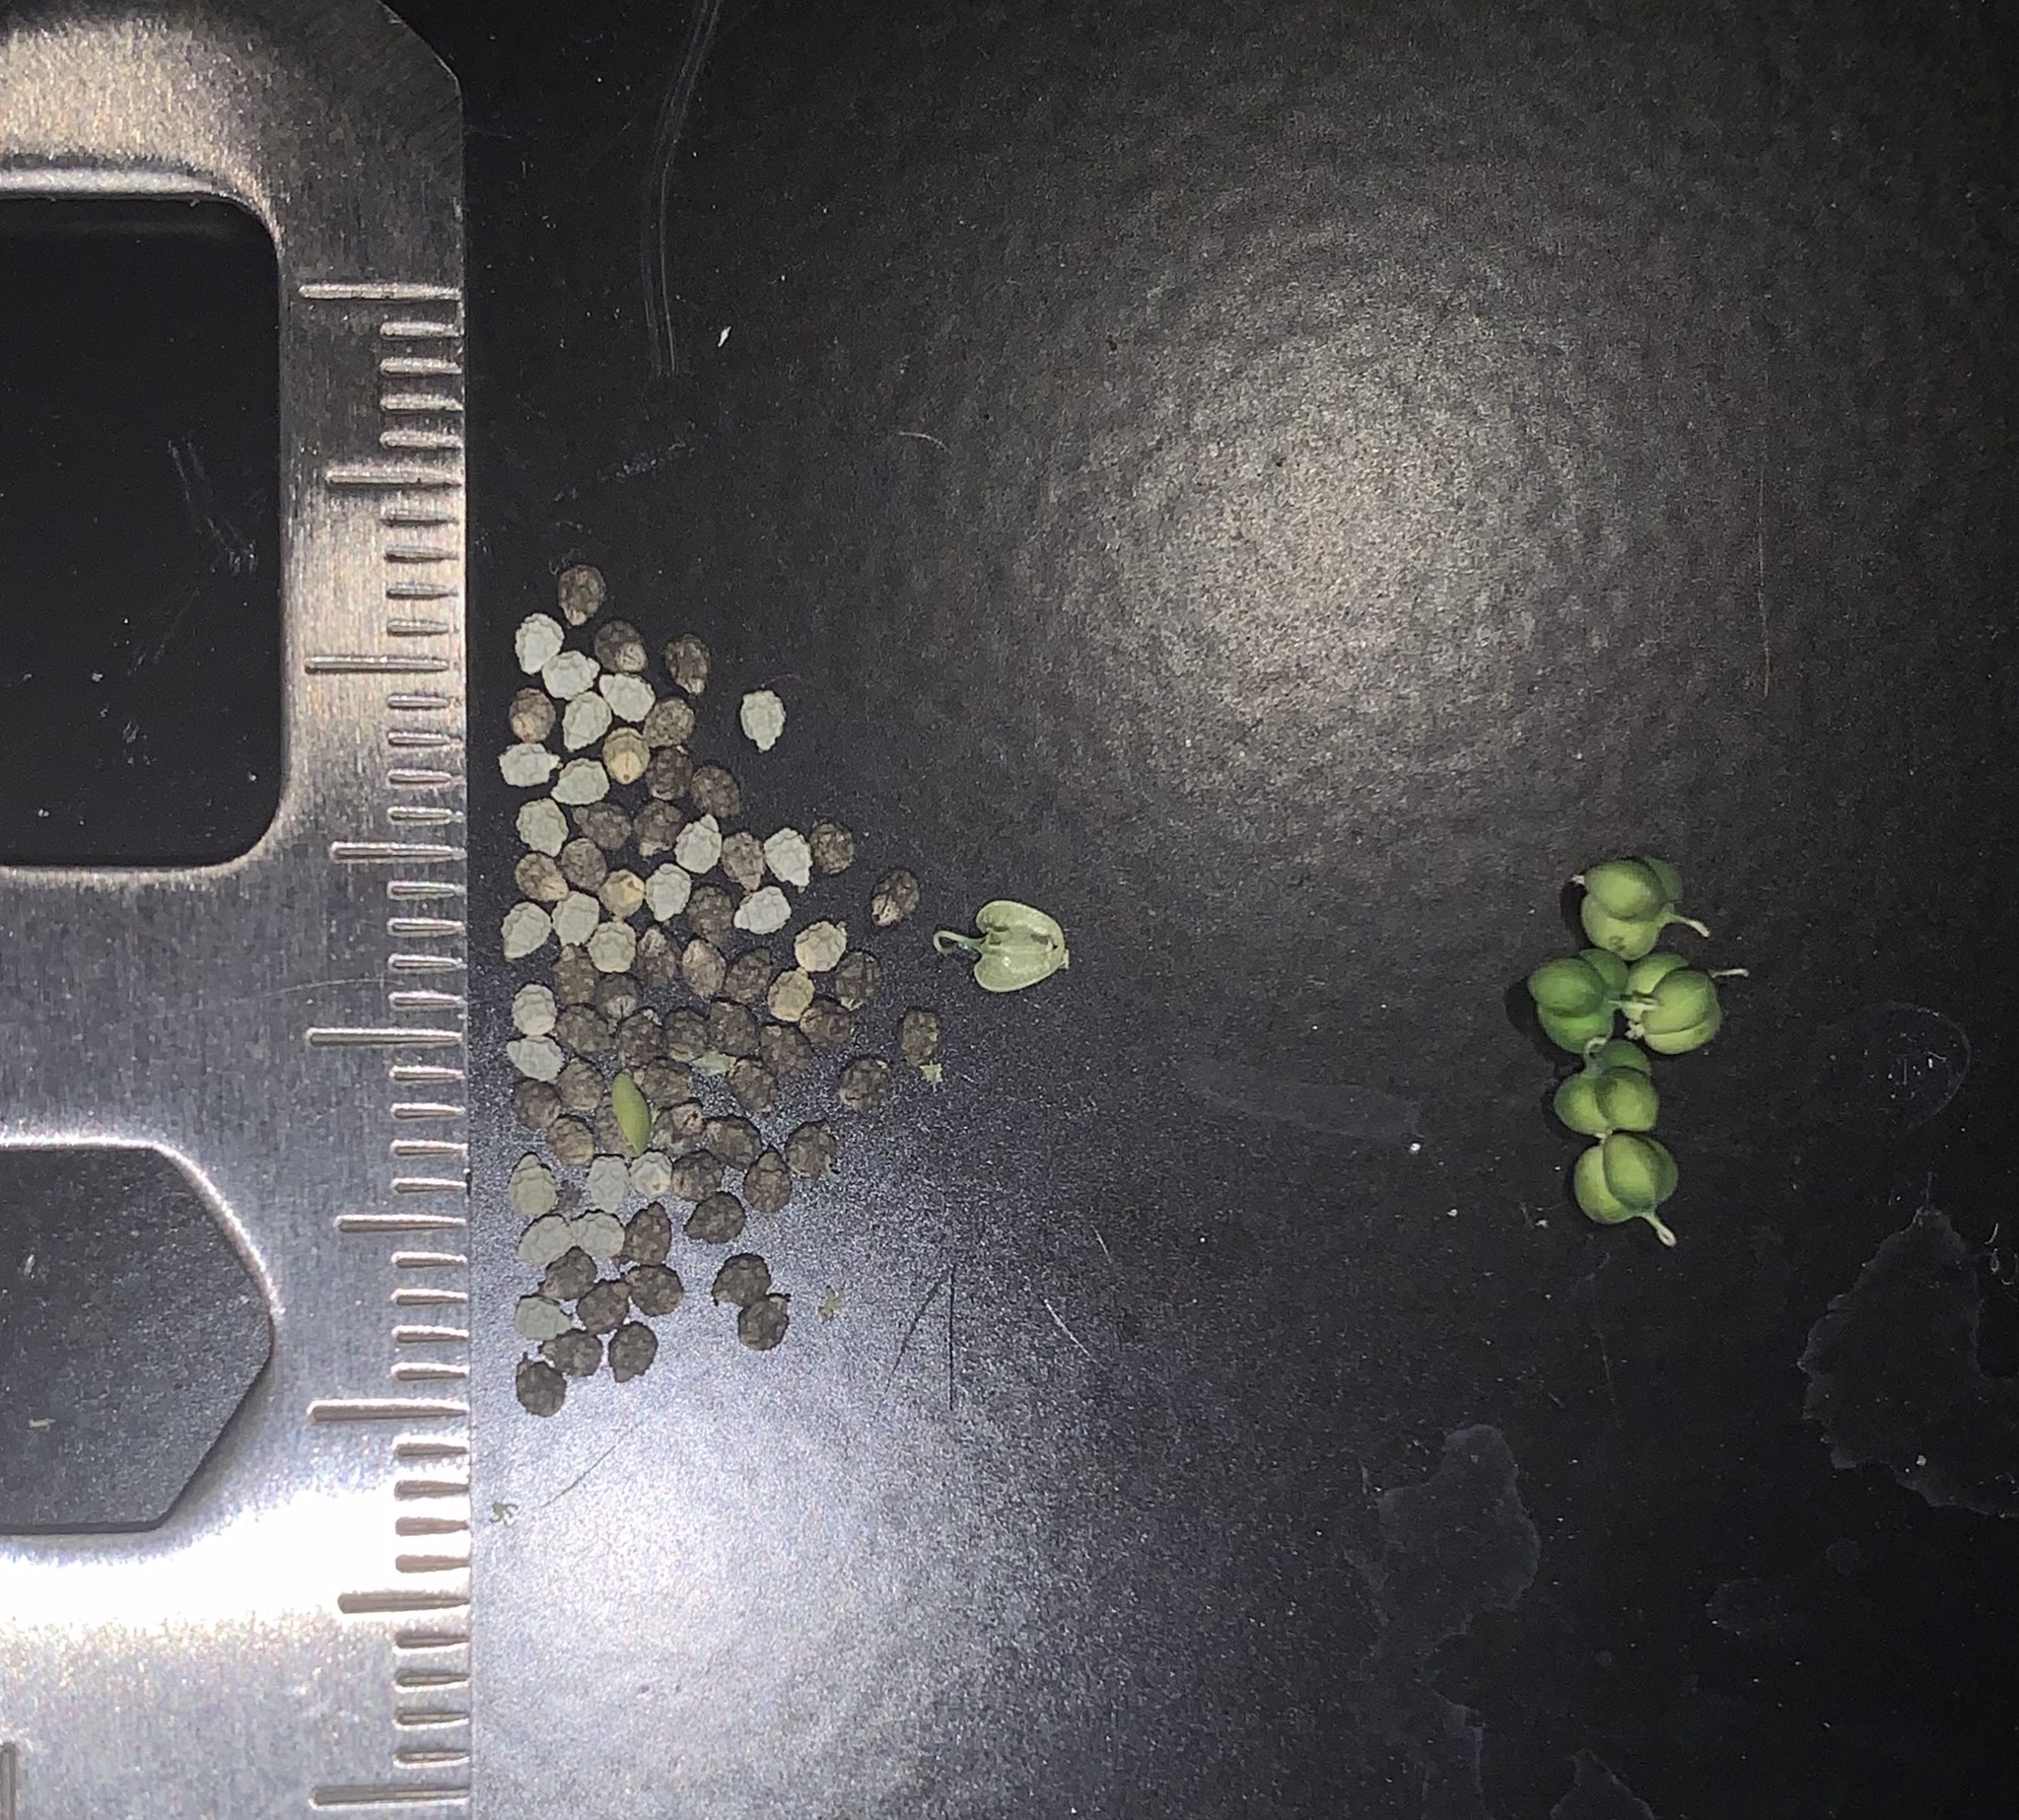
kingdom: Plantae
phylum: Tracheophyta
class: Magnoliopsida
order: Malpighiales
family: Euphorbiaceae
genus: Euphorbia
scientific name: Euphorbia graminea
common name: Grassleaf spurge
